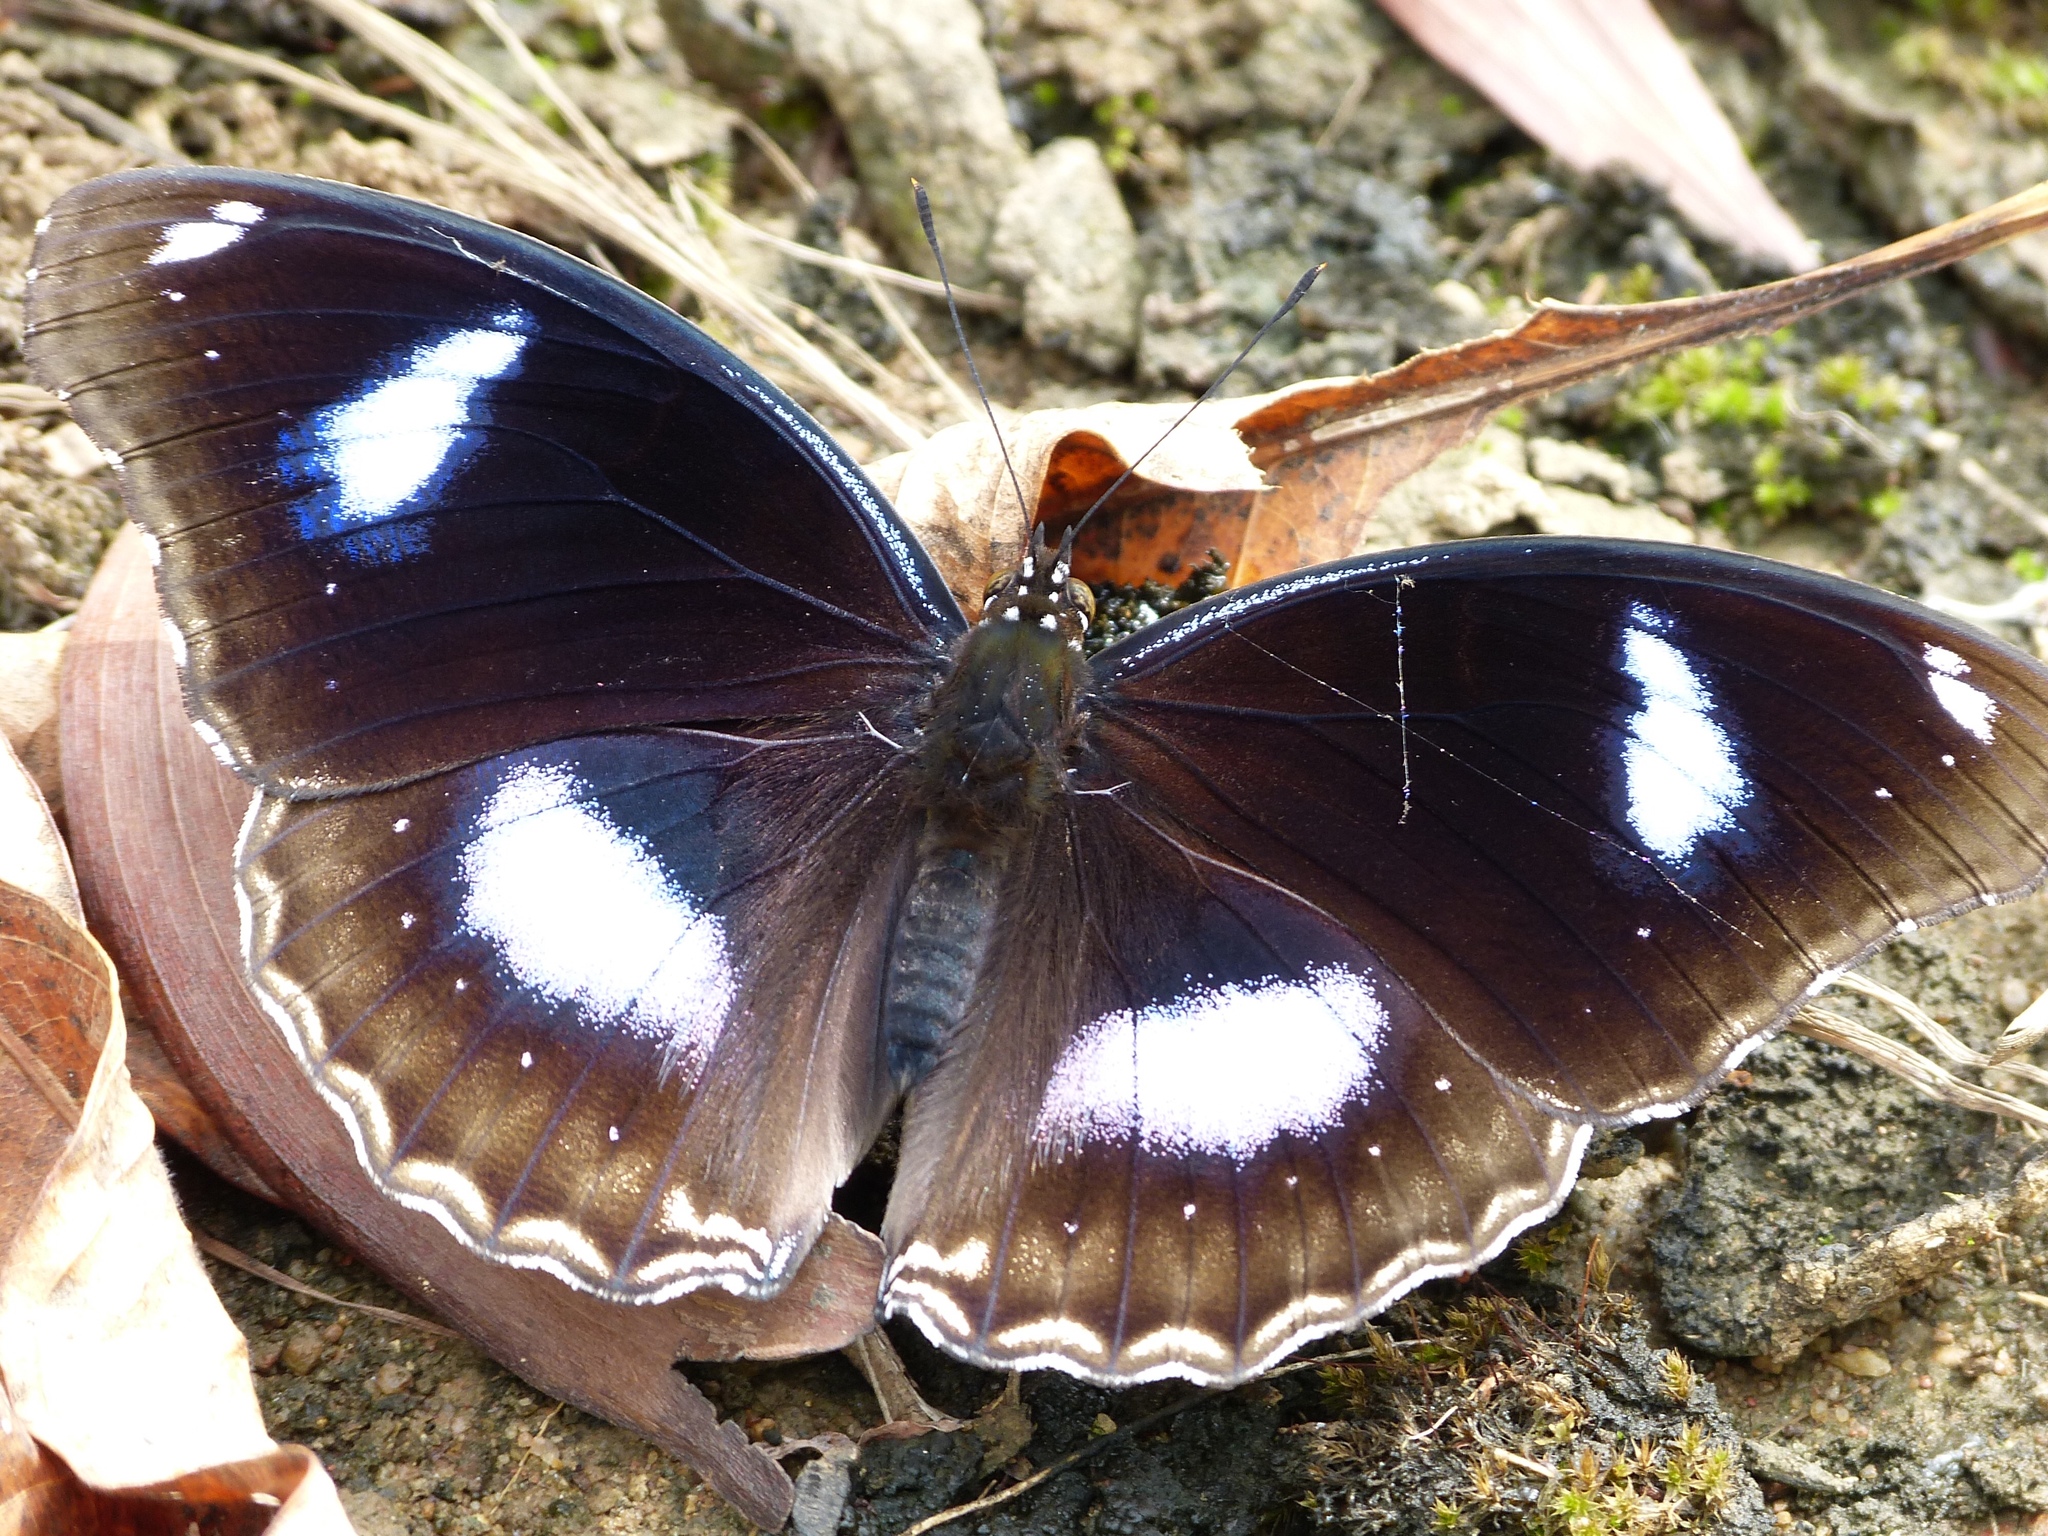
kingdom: Animalia
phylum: Arthropoda
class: Insecta
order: Lepidoptera
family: Nymphalidae
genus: Hypolimnas
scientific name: Hypolimnas bolina
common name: Great eggfly
